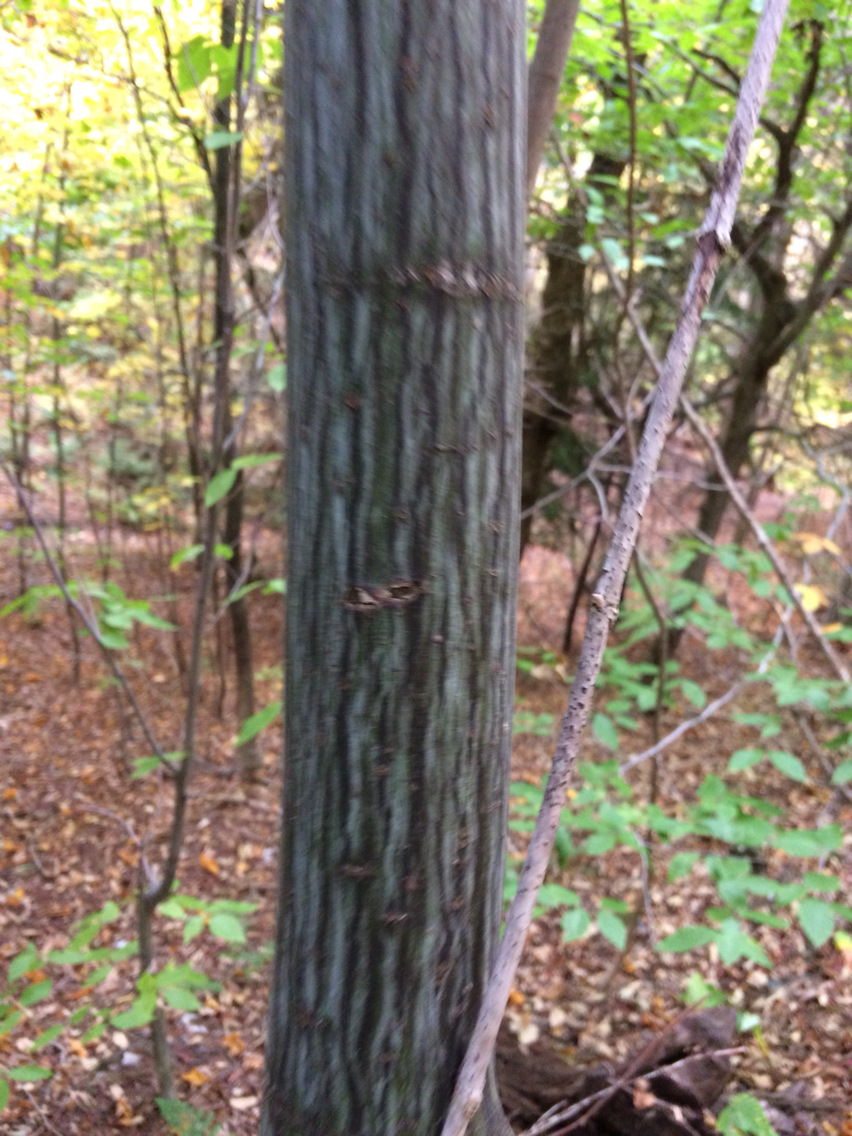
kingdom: Plantae
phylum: Tracheophyta
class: Magnoliopsida
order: Sapindales
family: Sapindaceae
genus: Acer
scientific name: Acer pensylvanicum
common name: Moosewood
